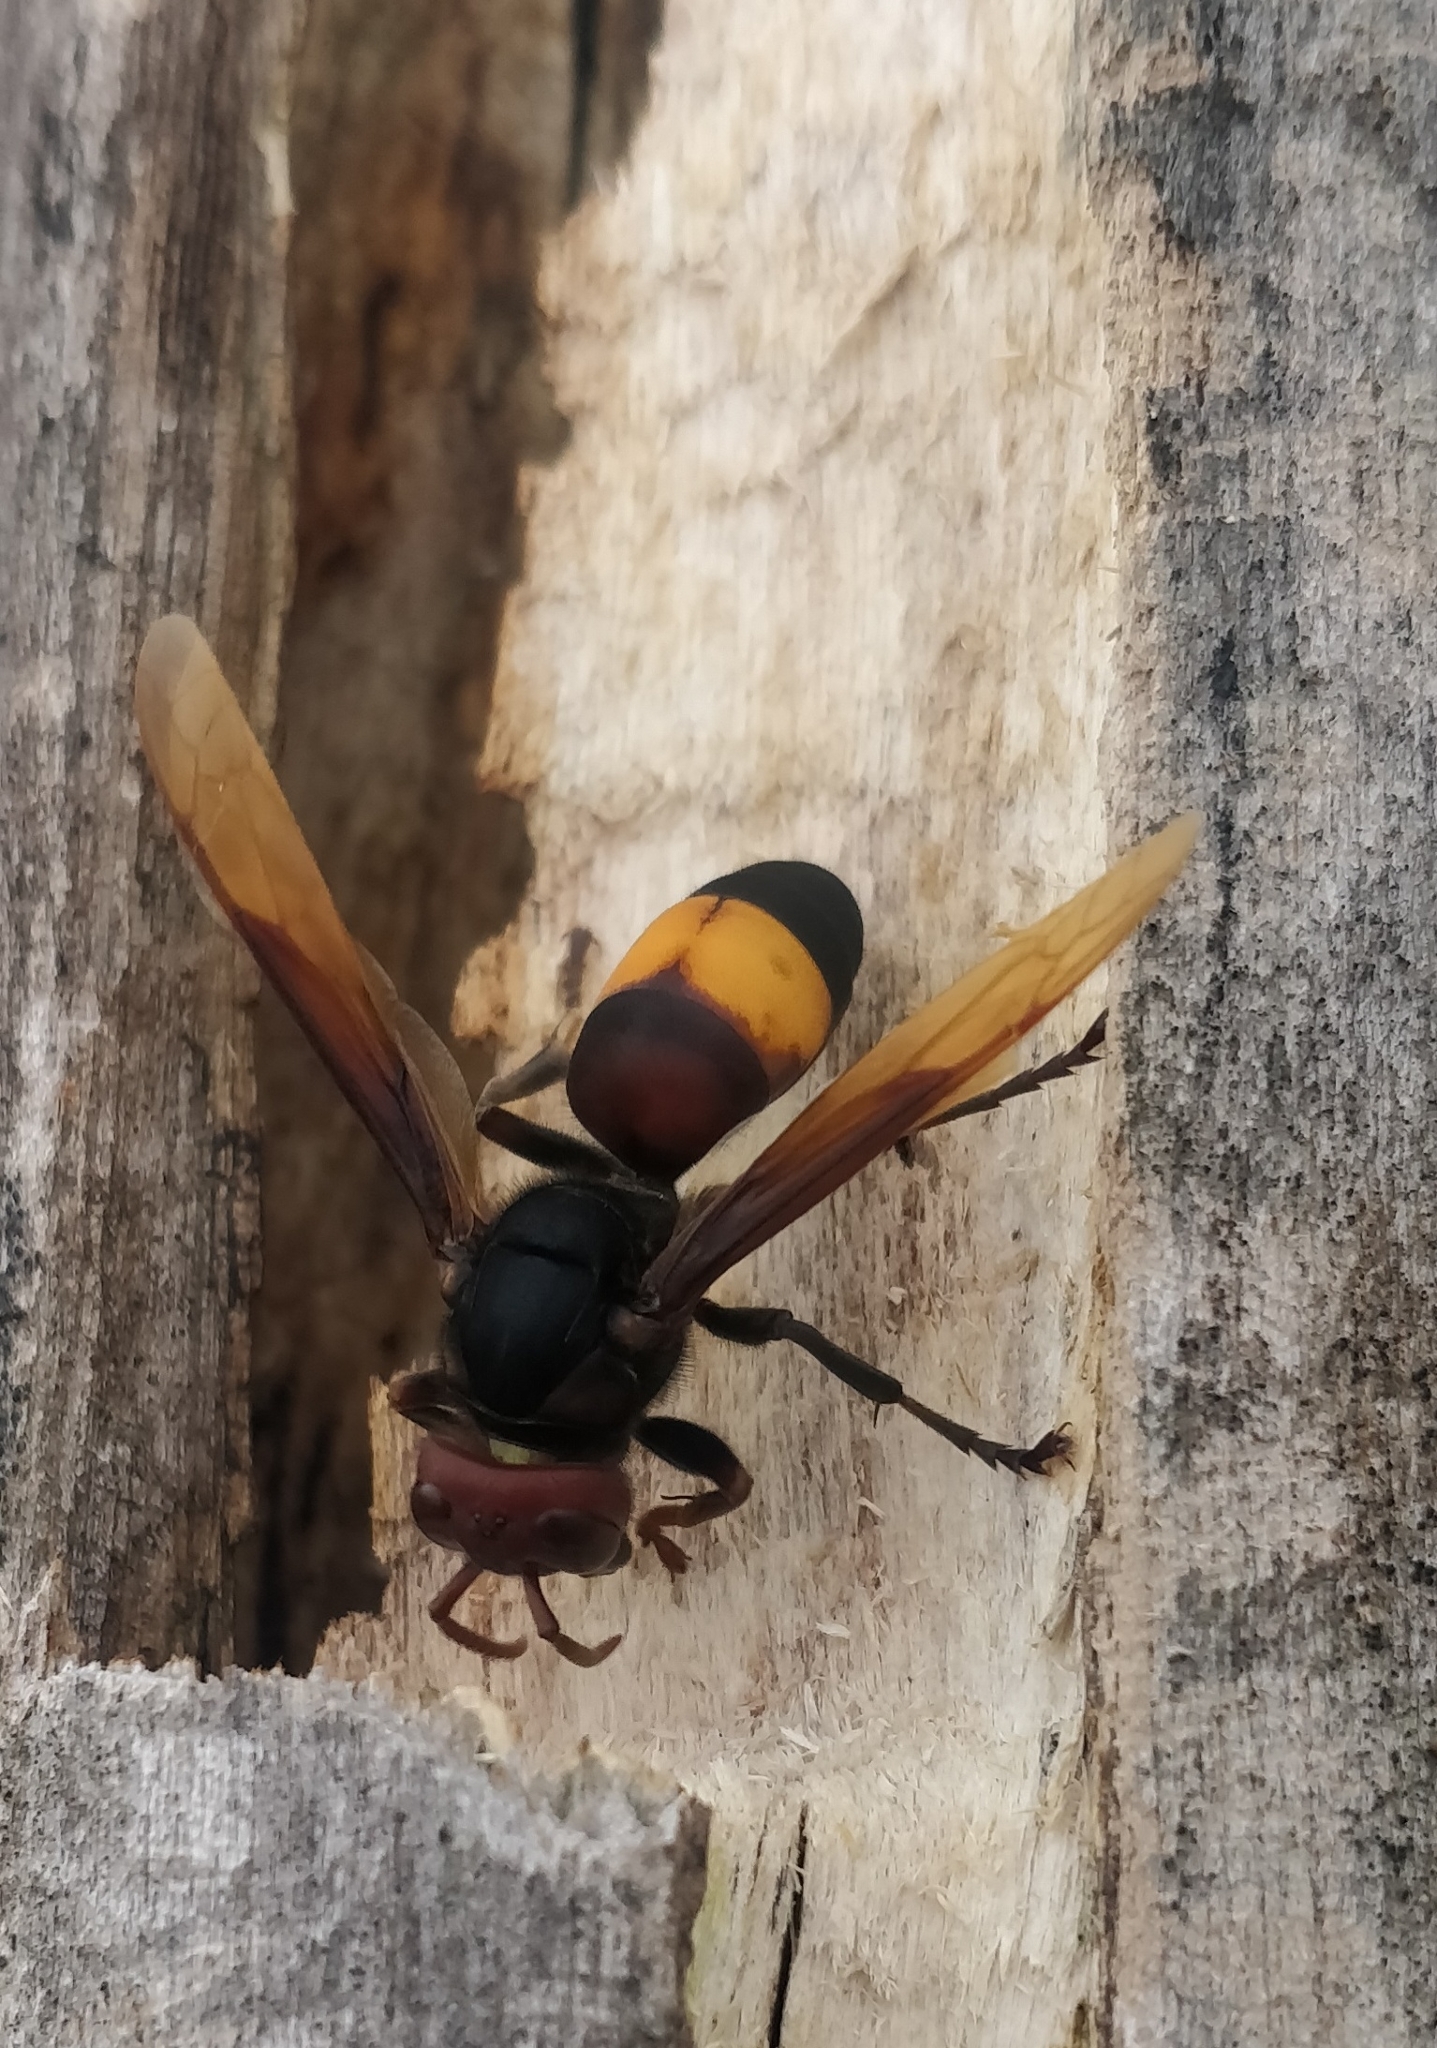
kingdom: Animalia
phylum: Arthropoda
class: Insecta
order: Hymenoptera
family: Vespidae
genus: Vespa
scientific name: Vespa tropica
